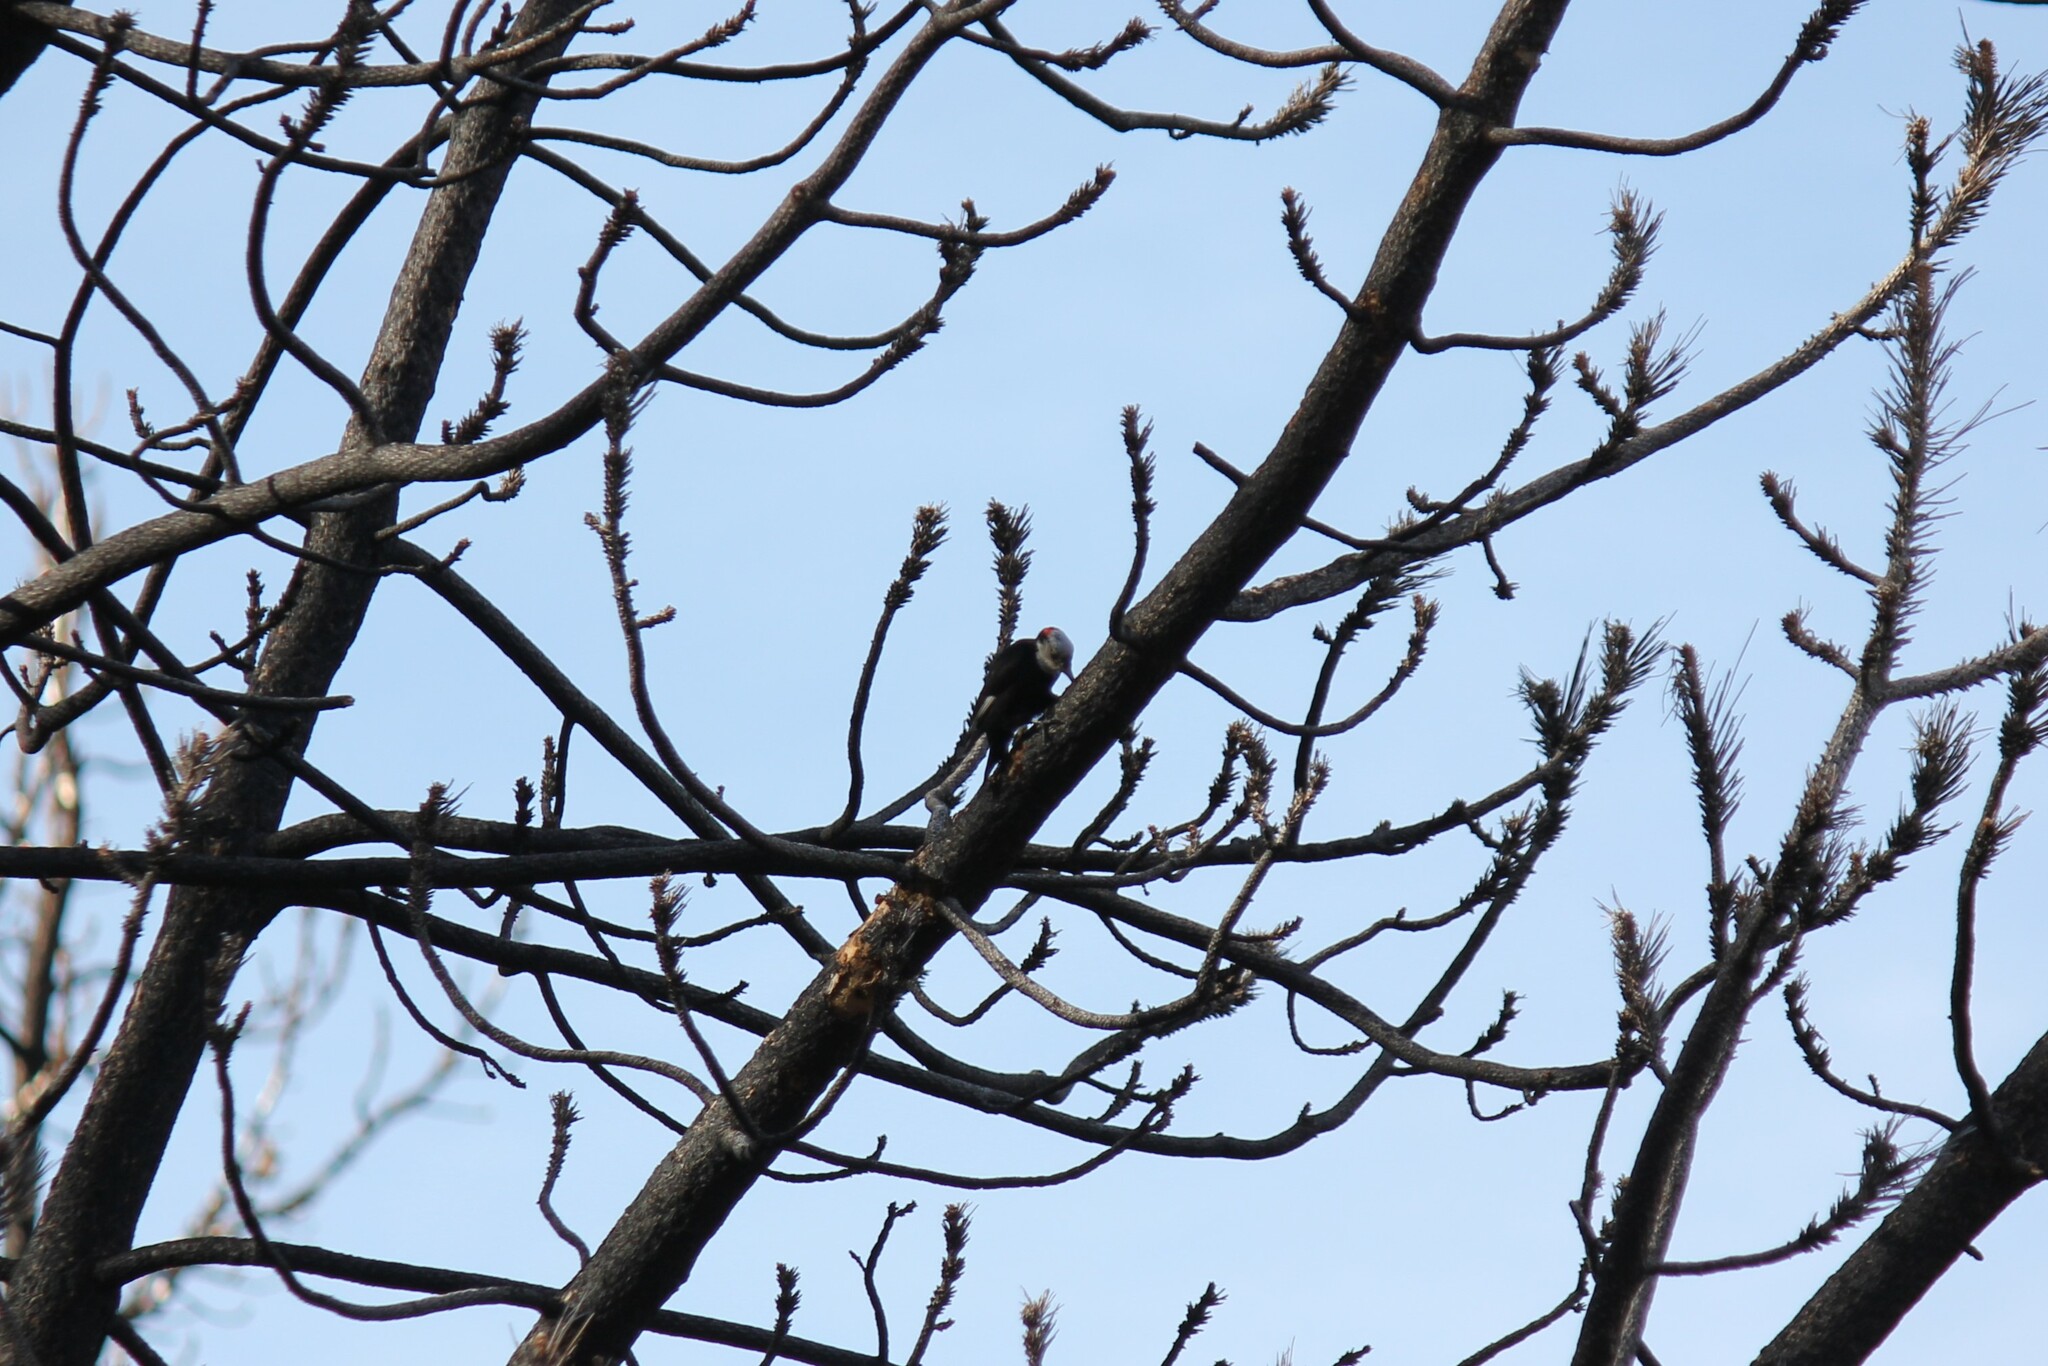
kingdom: Animalia
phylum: Chordata
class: Aves
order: Piciformes
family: Picidae
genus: Leuconotopicus
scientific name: Leuconotopicus albolarvatus
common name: White-headed woodpecker
